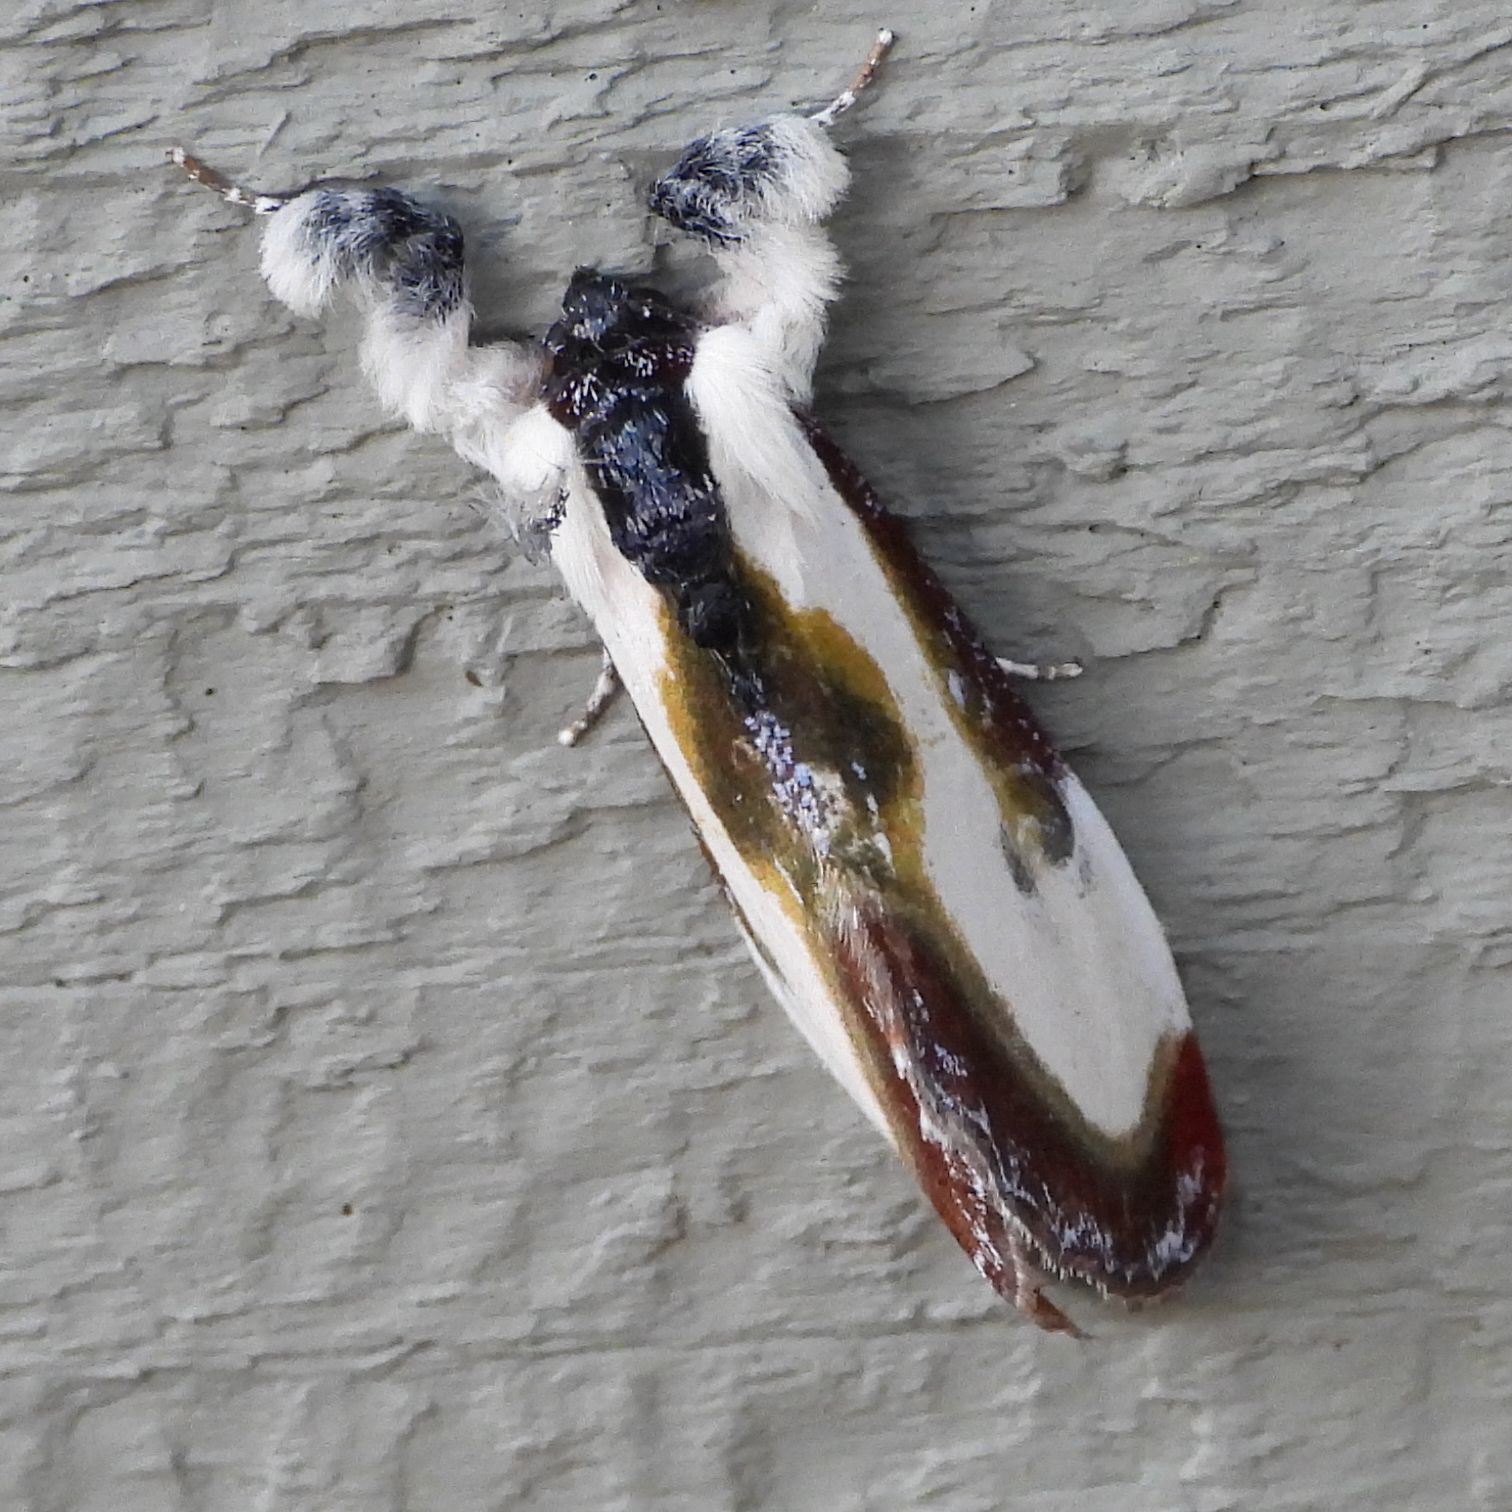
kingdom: Animalia
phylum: Arthropoda
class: Insecta
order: Lepidoptera
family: Noctuidae
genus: Eudryas
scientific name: Eudryas grata
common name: Beautiful wood-nymph
